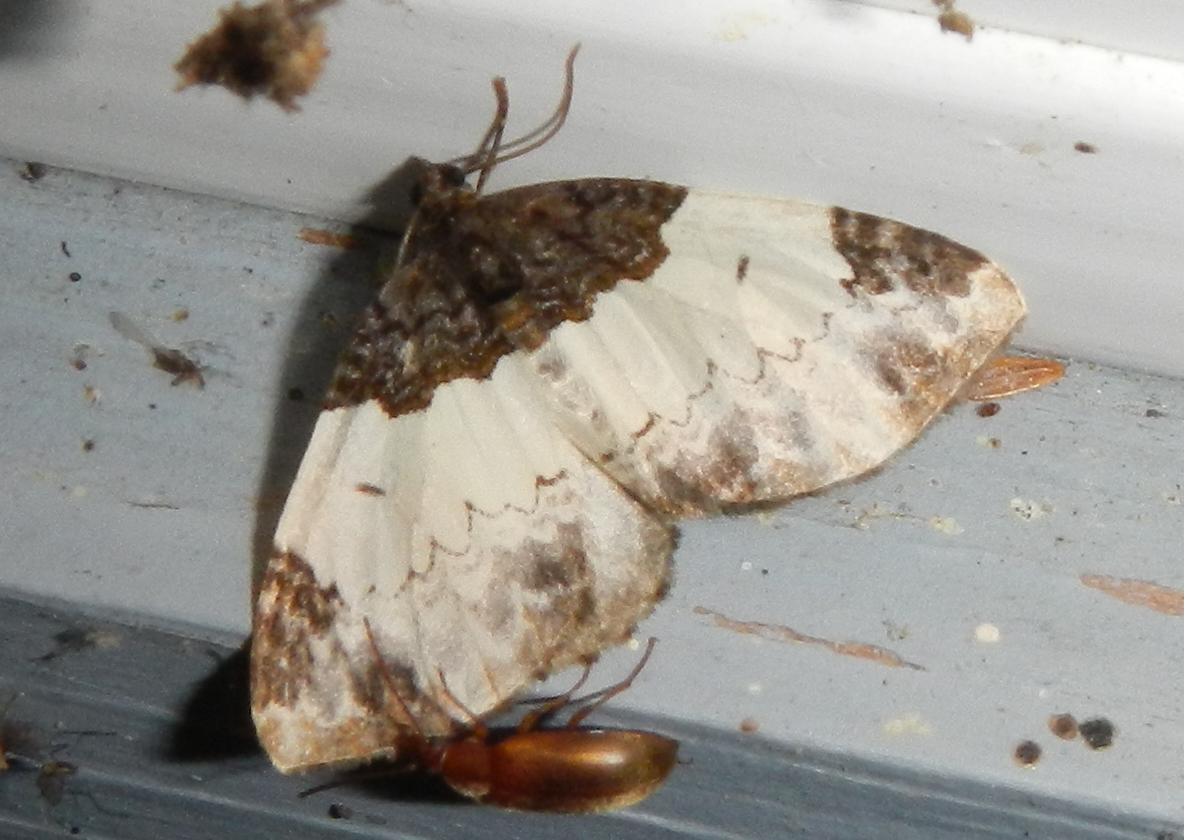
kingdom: Animalia
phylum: Arthropoda
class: Insecta
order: Lepidoptera
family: Geometridae
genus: Mesoleuca
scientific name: Mesoleuca ruficillata
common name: White-ribboned carpet moth
